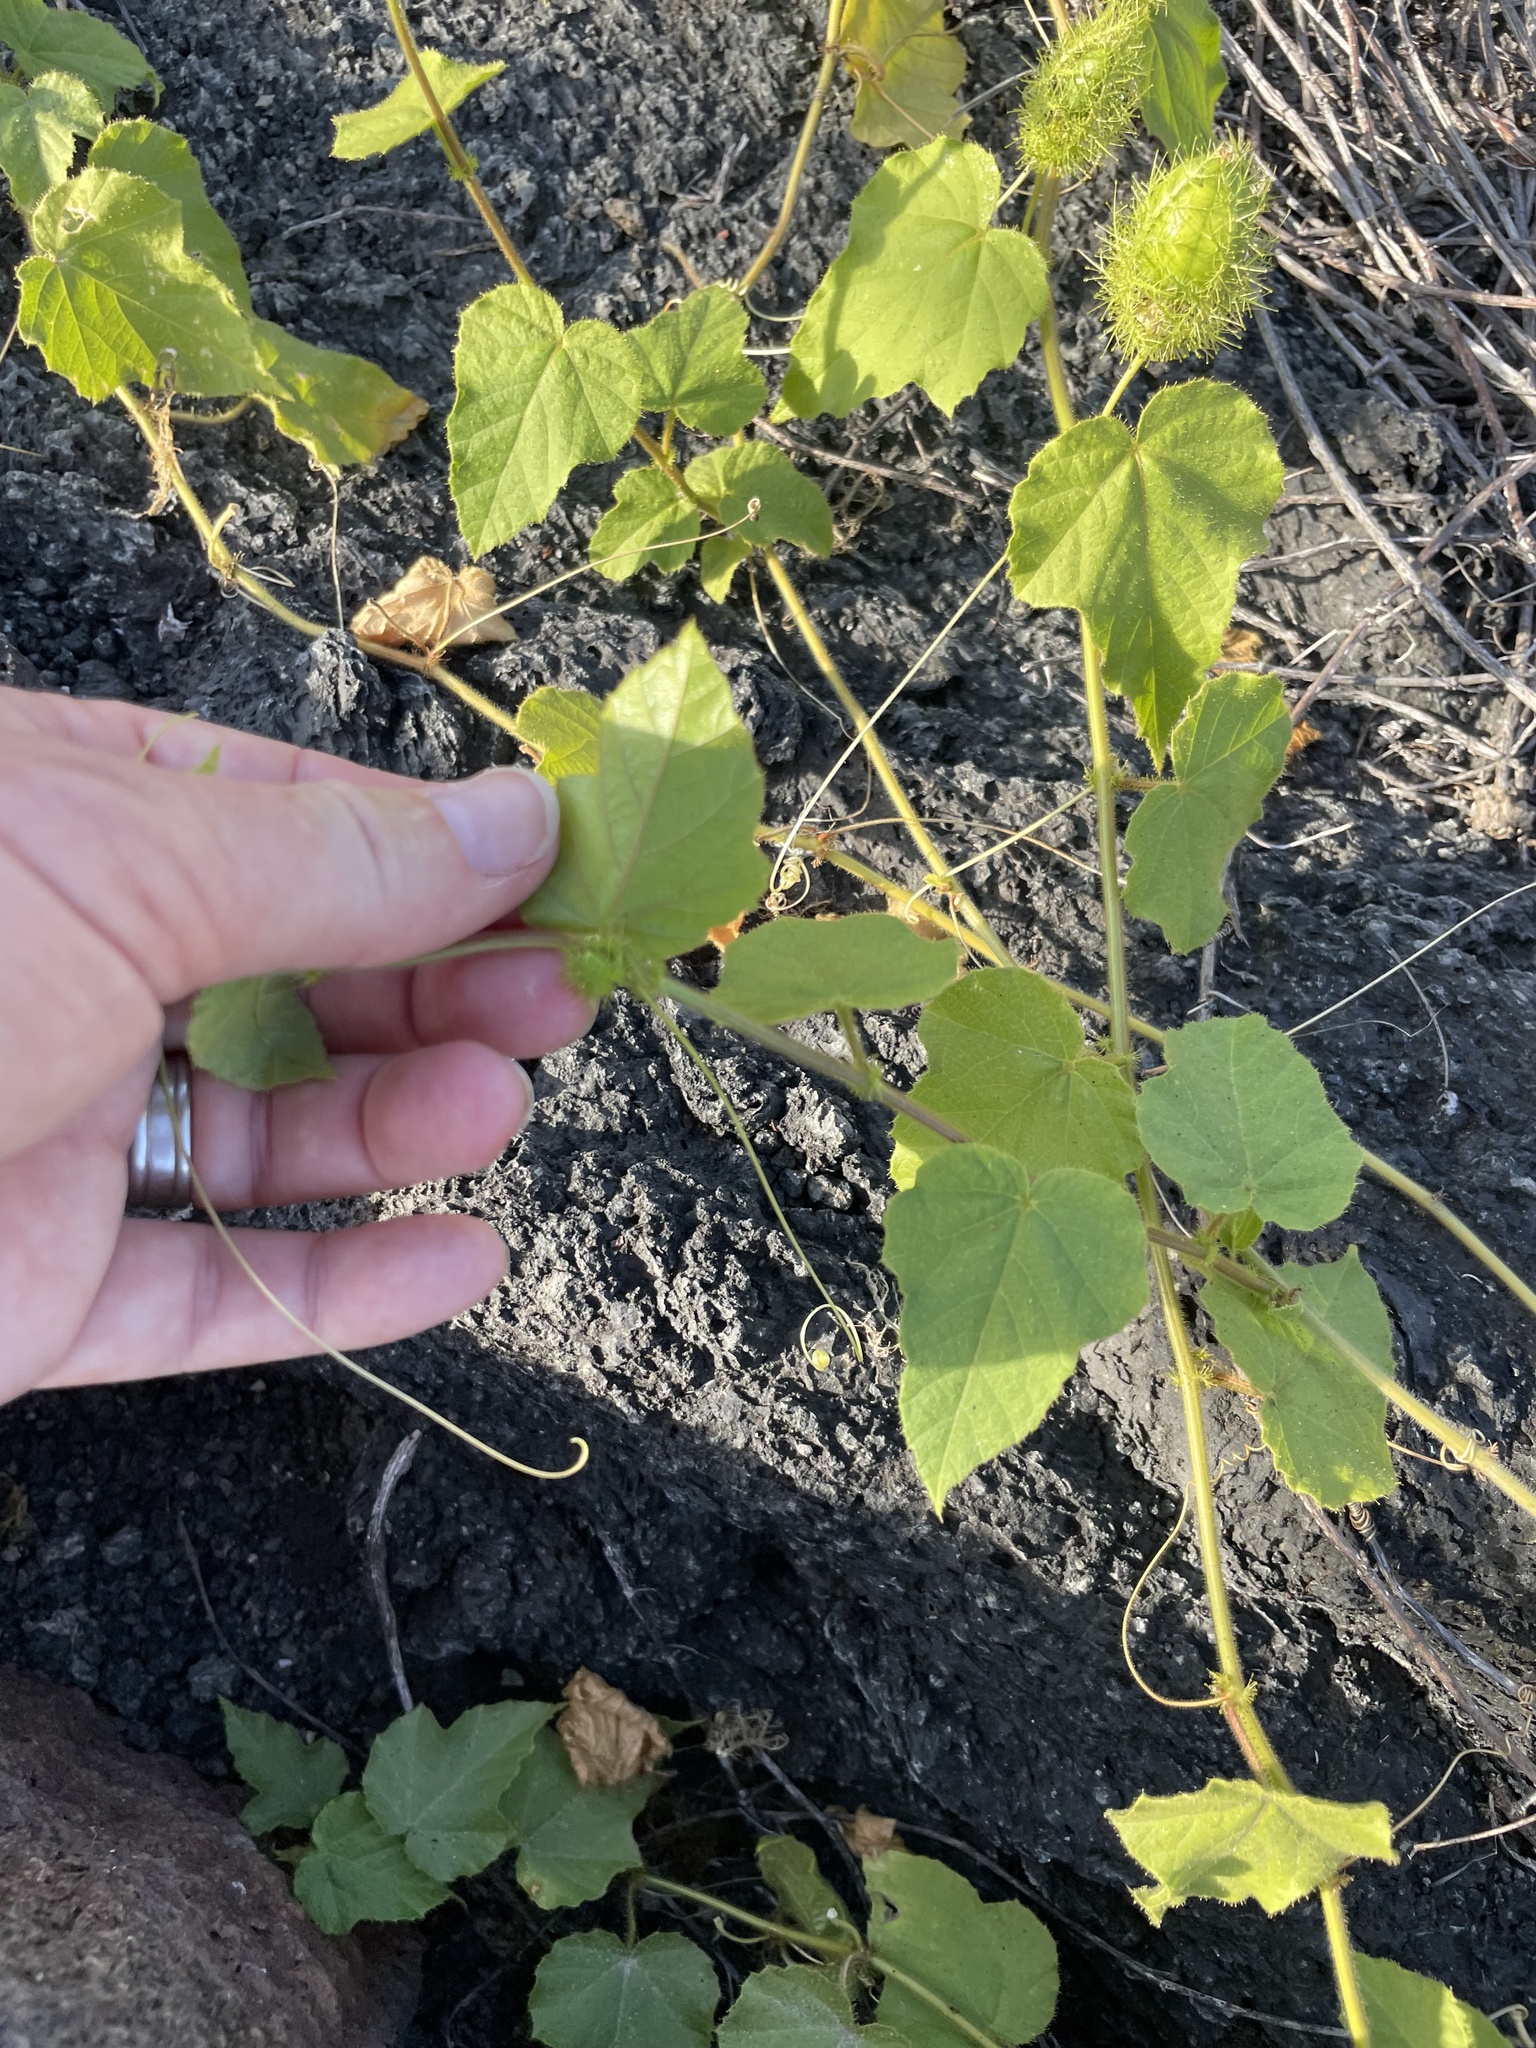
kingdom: Plantae
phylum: Tracheophyta
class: Magnoliopsida
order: Malpighiales
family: Passifloraceae
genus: Passiflora
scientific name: Passiflora vesicaria
